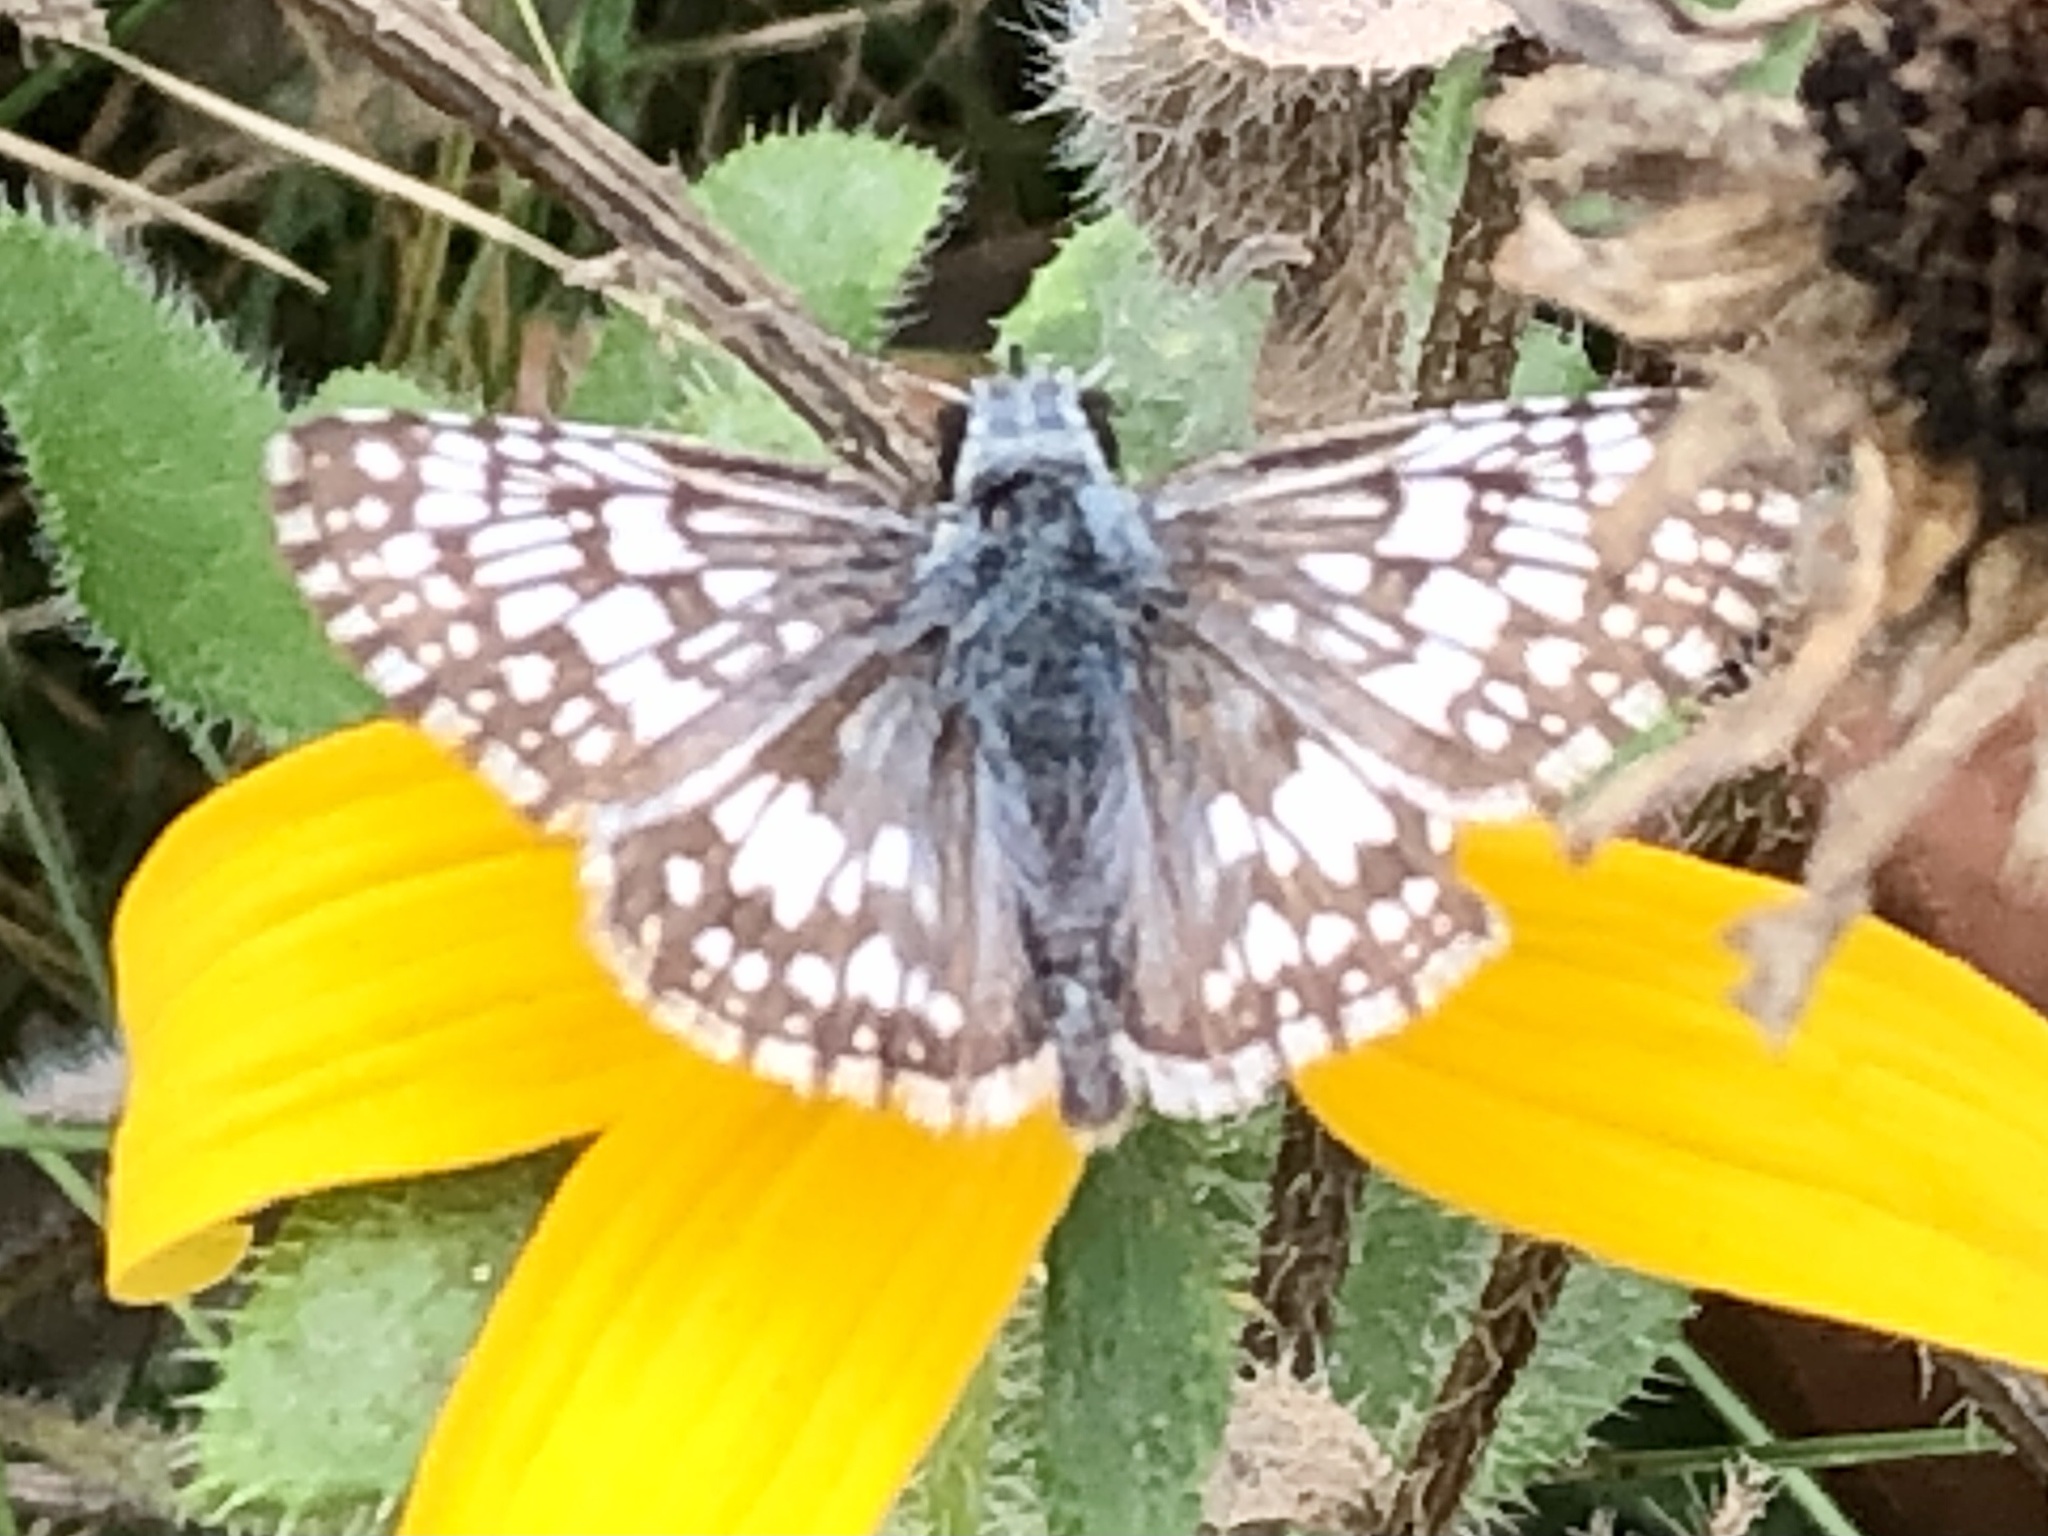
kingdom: Animalia
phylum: Arthropoda
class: Insecta
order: Lepidoptera
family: Hesperiidae
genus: Burnsius
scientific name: Burnsius communis
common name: Common checkered-skipper
